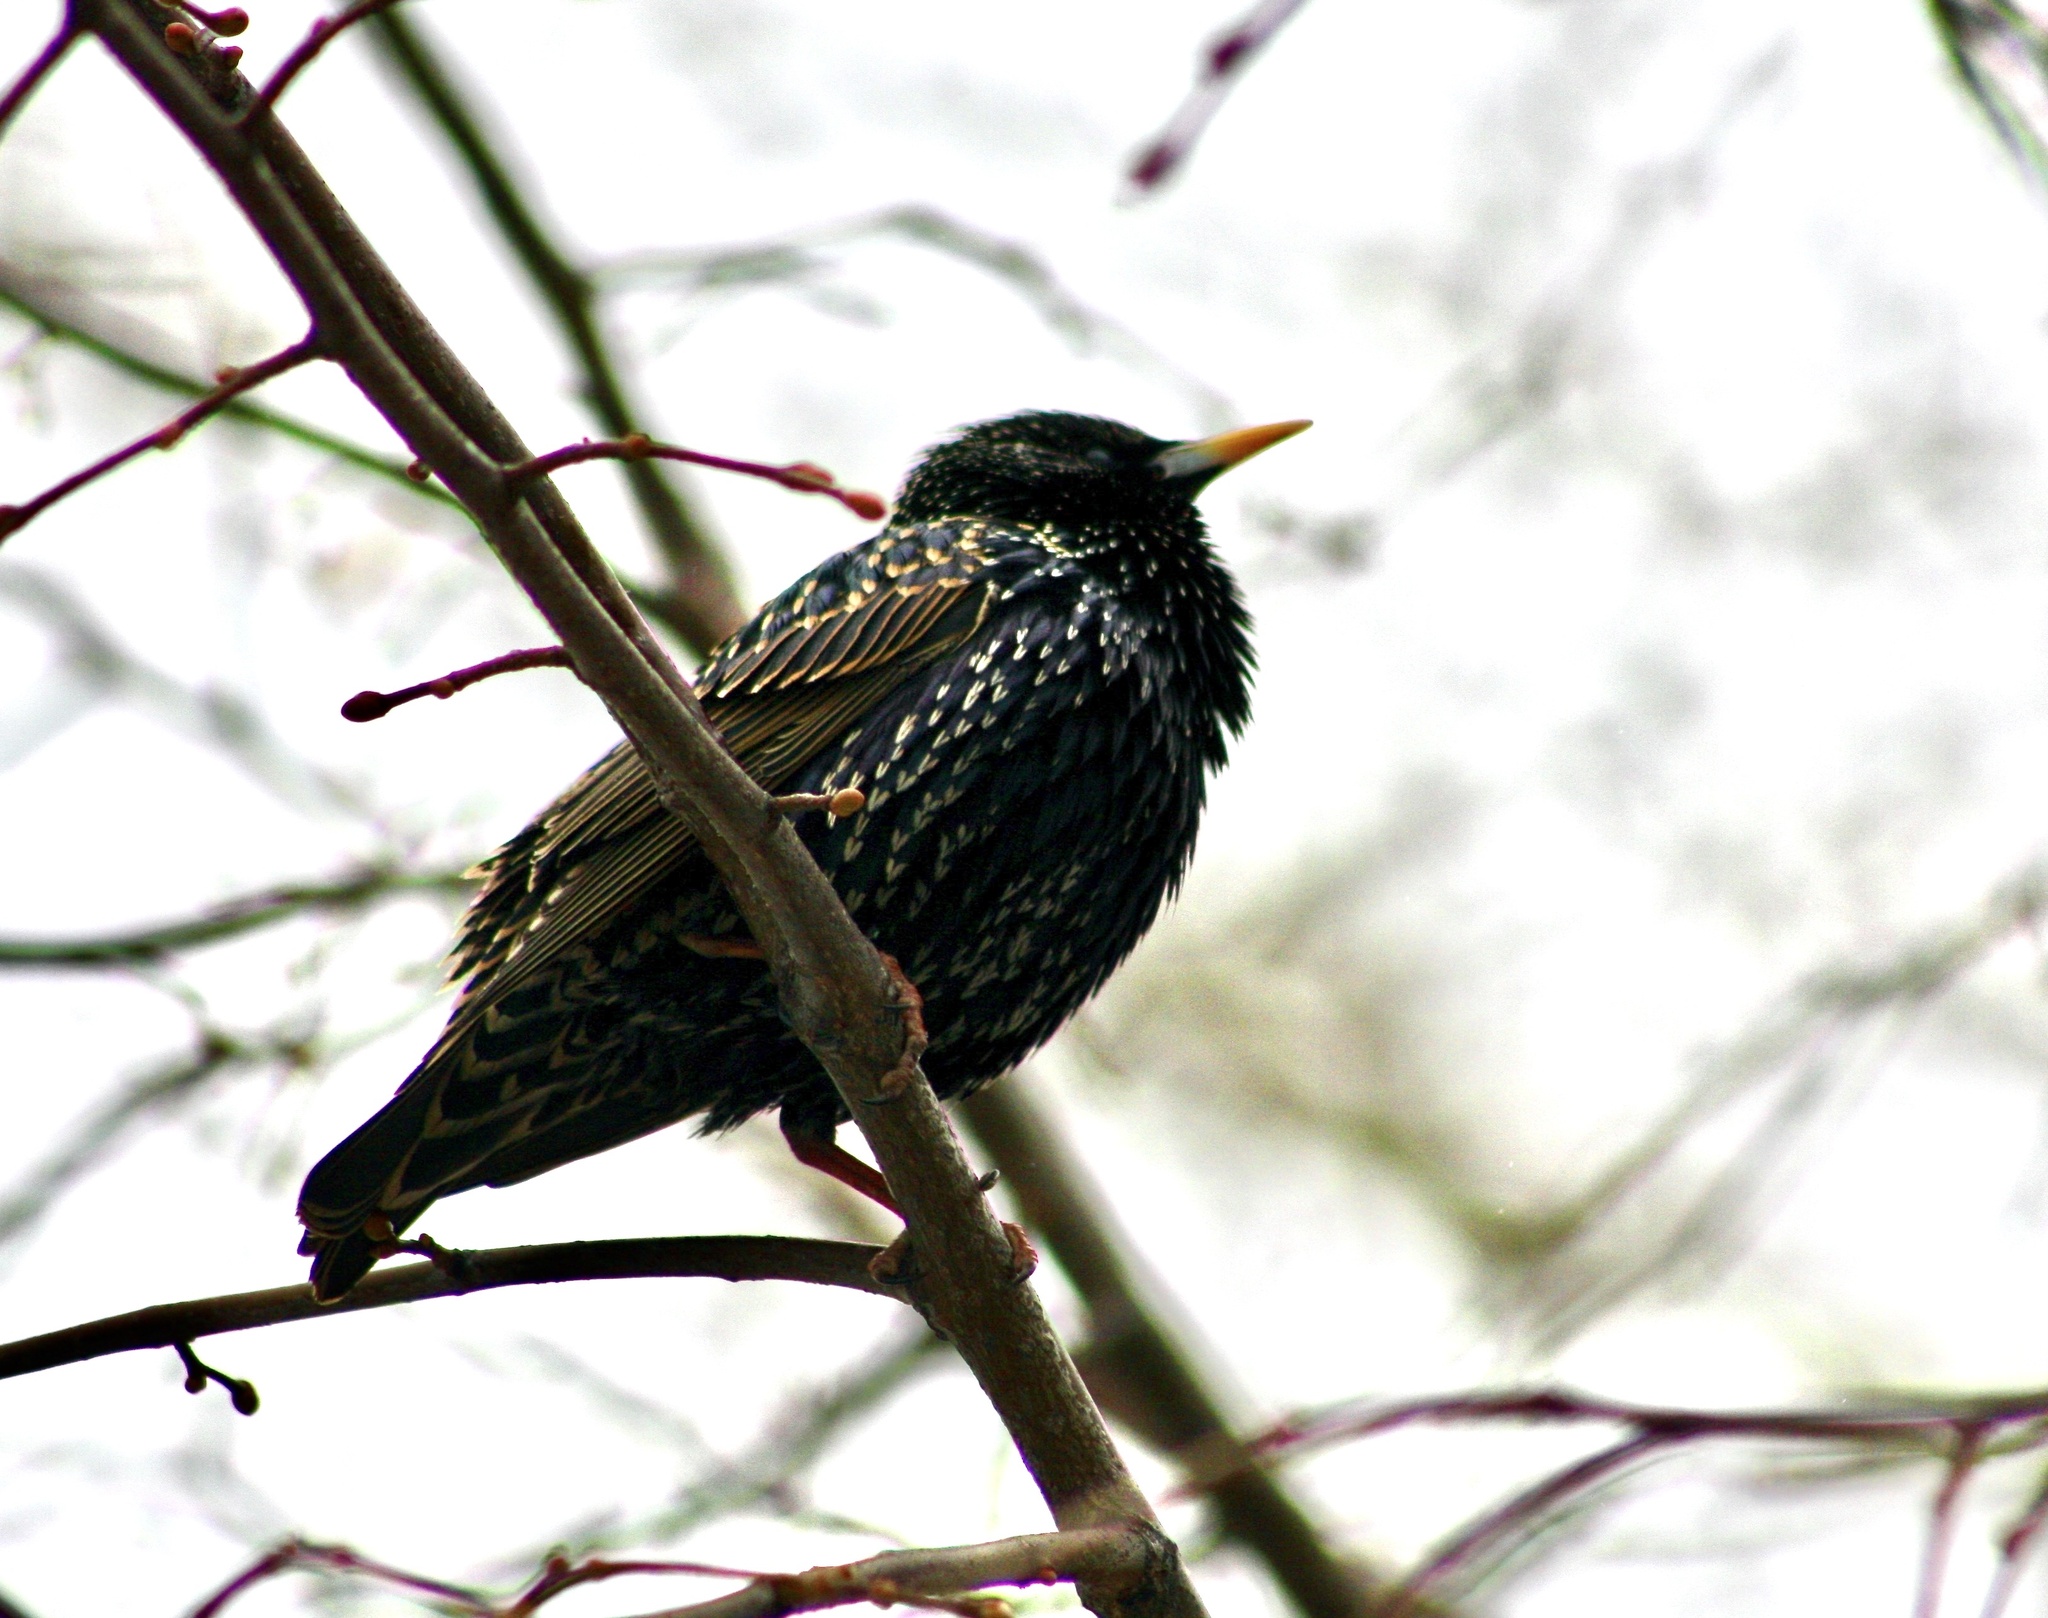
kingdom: Animalia
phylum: Chordata
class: Aves
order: Passeriformes
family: Sturnidae
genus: Sturnus
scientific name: Sturnus vulgaris
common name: Common starling
